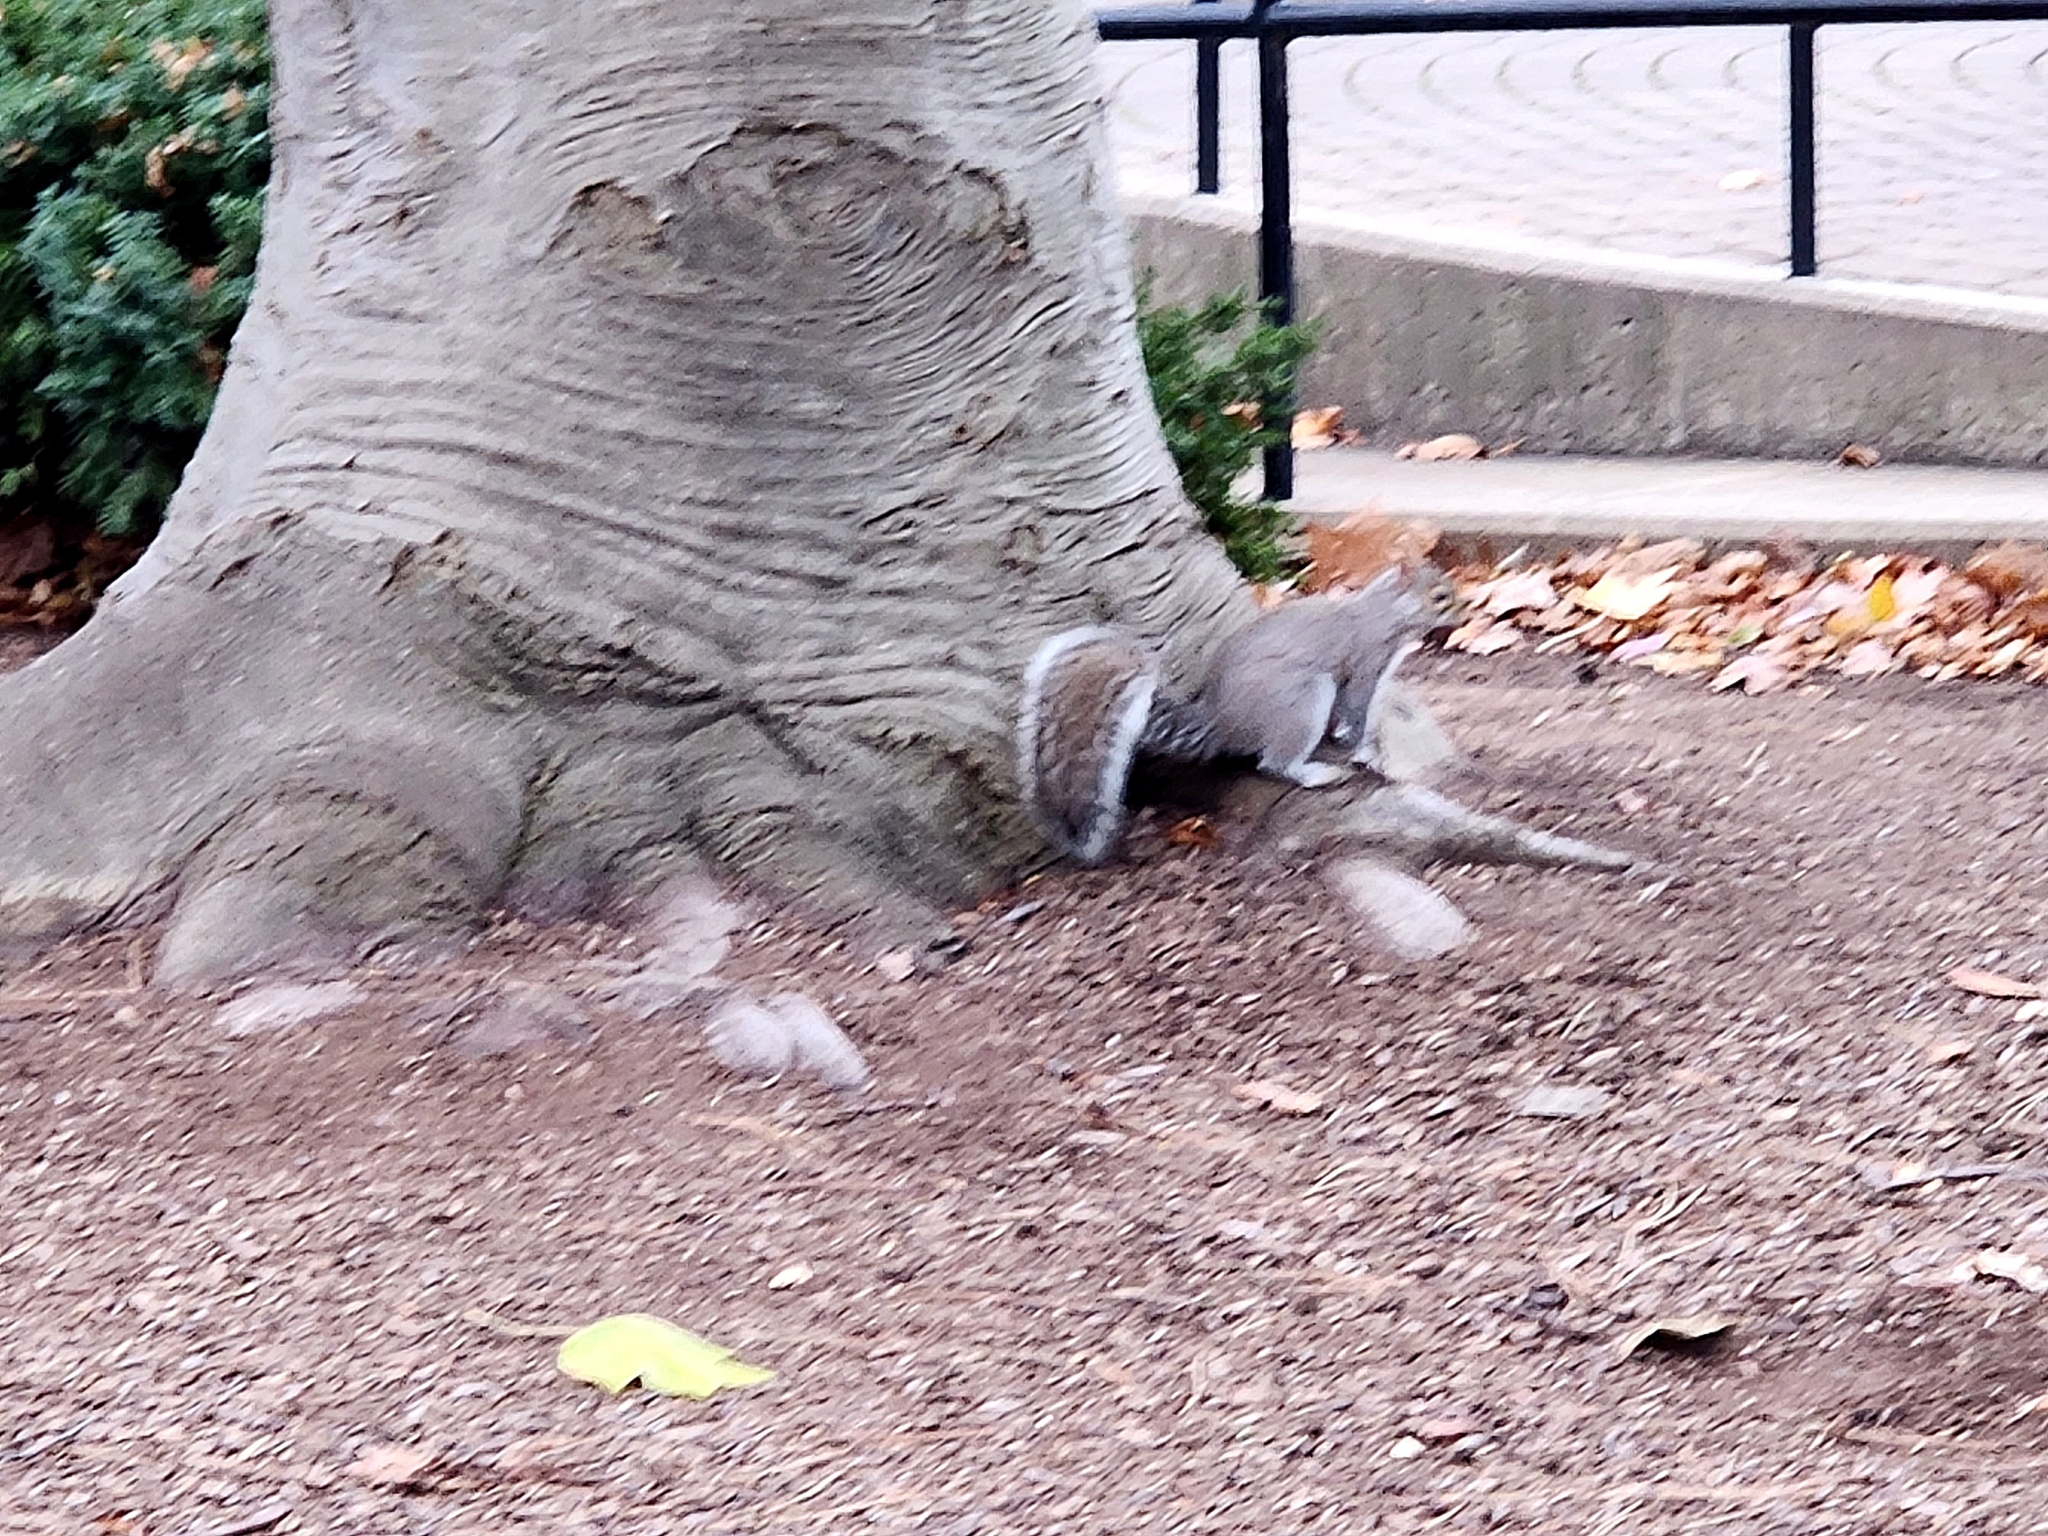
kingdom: Animalia
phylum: Chordata
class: Mammalia
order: Rodentia
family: Sciuridae
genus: Sciurus
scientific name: Sciurus carolinensis
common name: Eastern gray squirrel
